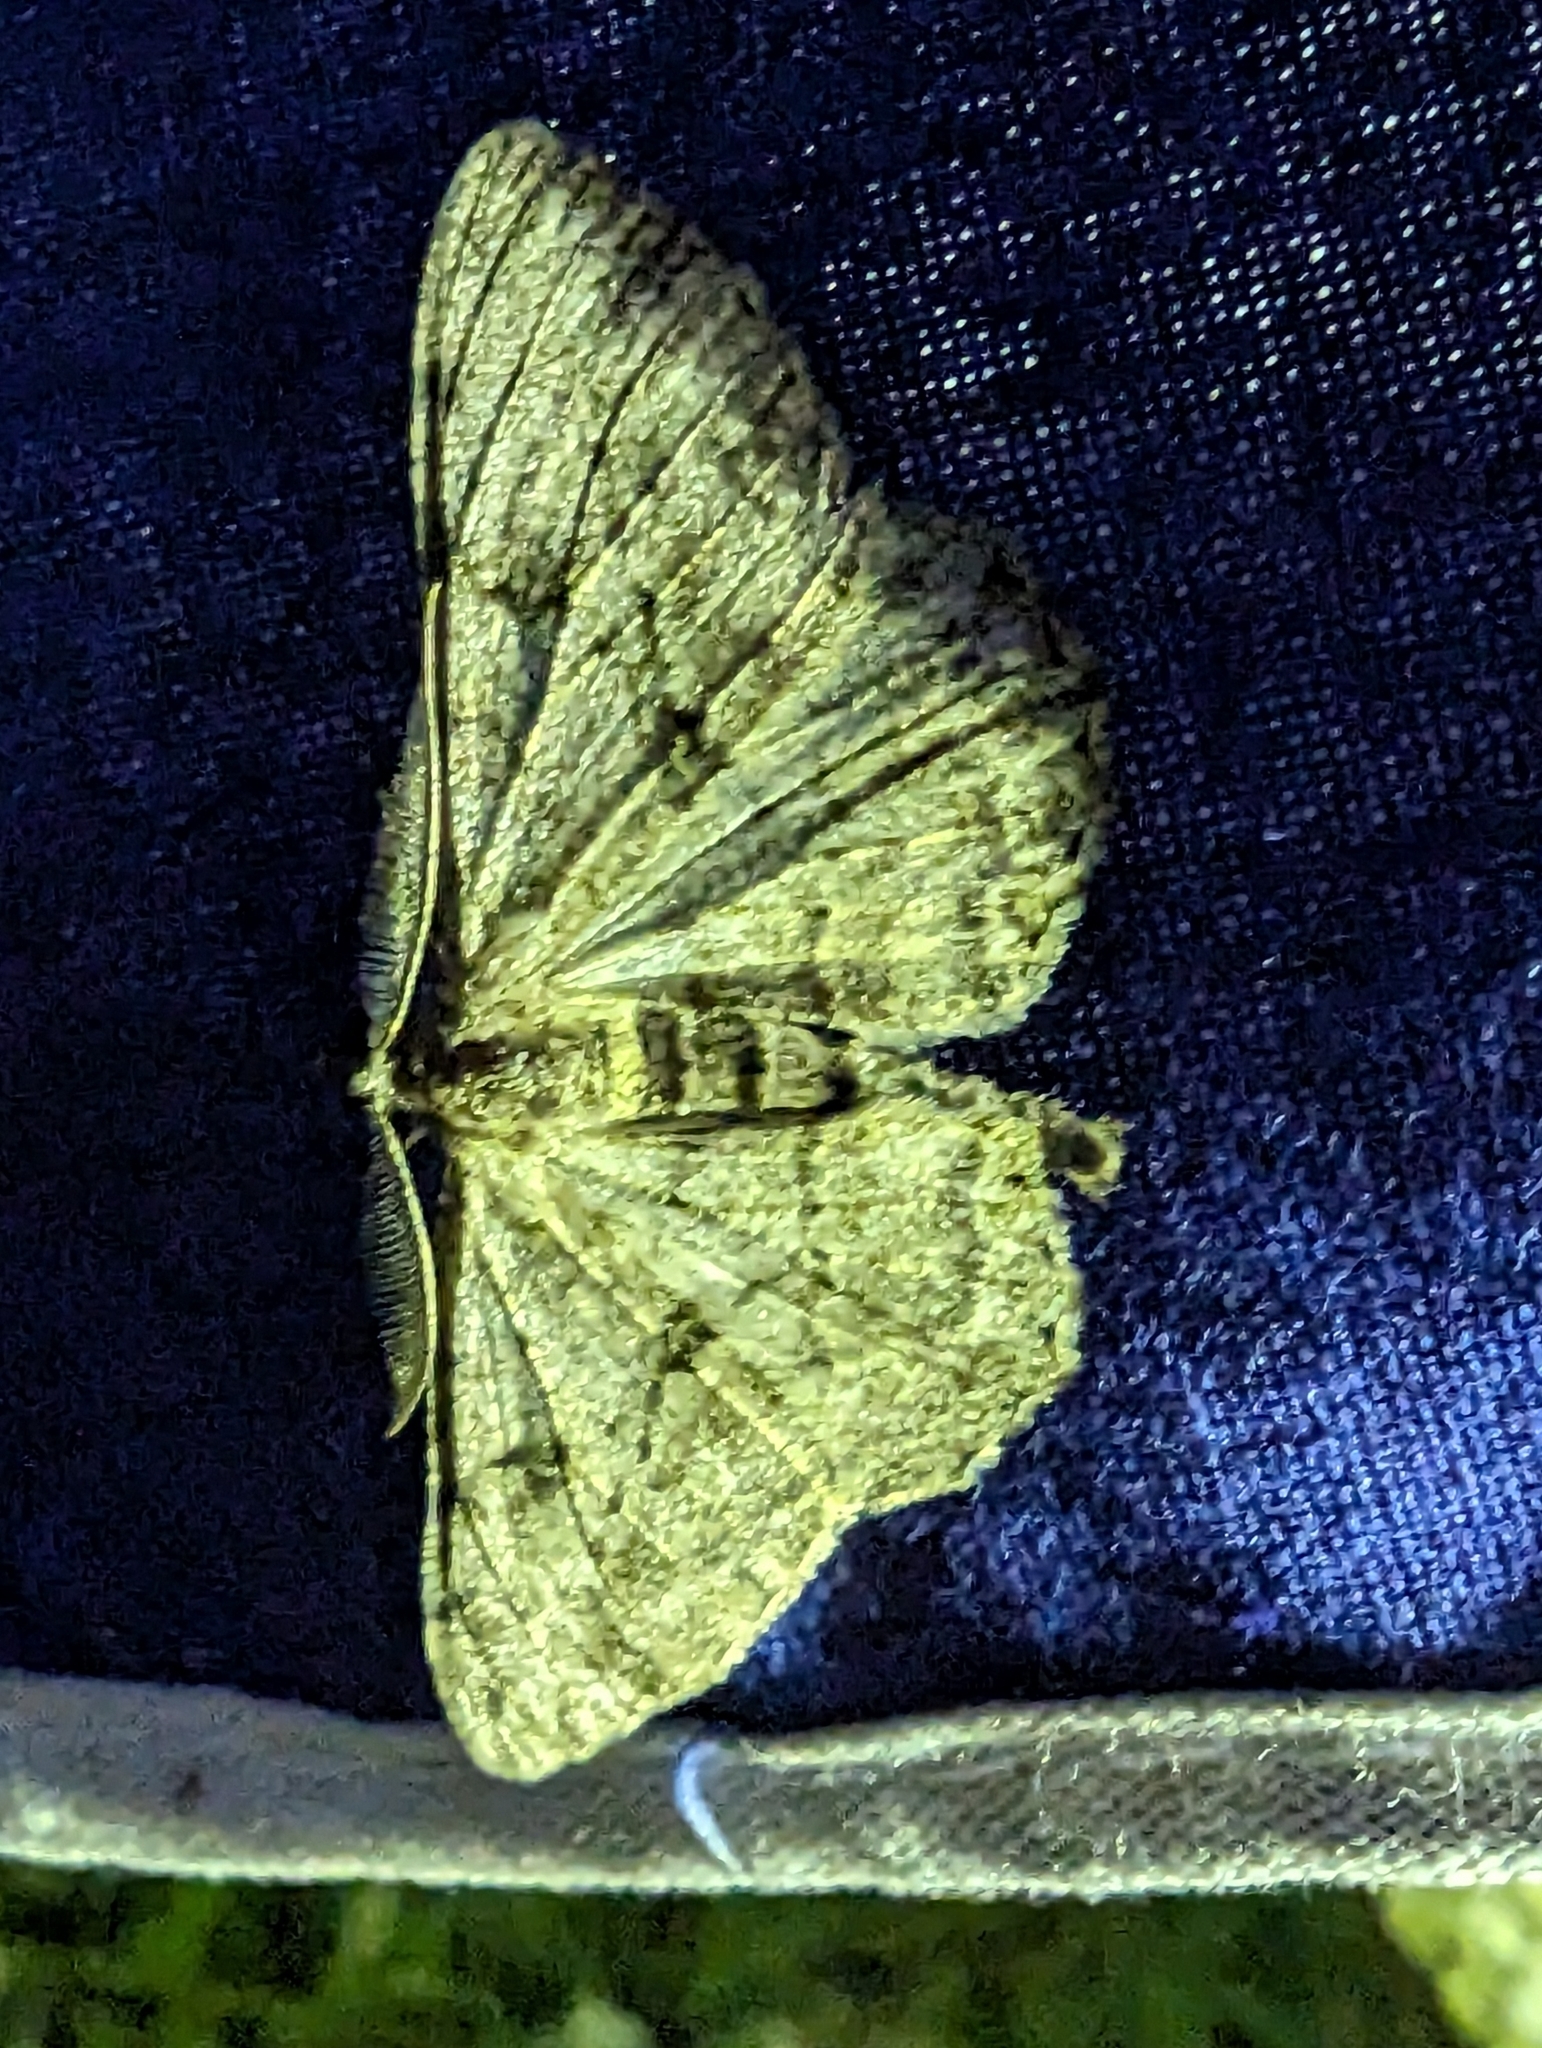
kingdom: Animalia
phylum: Arthropoda
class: Insecta
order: Lepidoptera
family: Geometridae
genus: Peribatodes
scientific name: Peribatodes rhomboidaria
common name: Willow beauty
